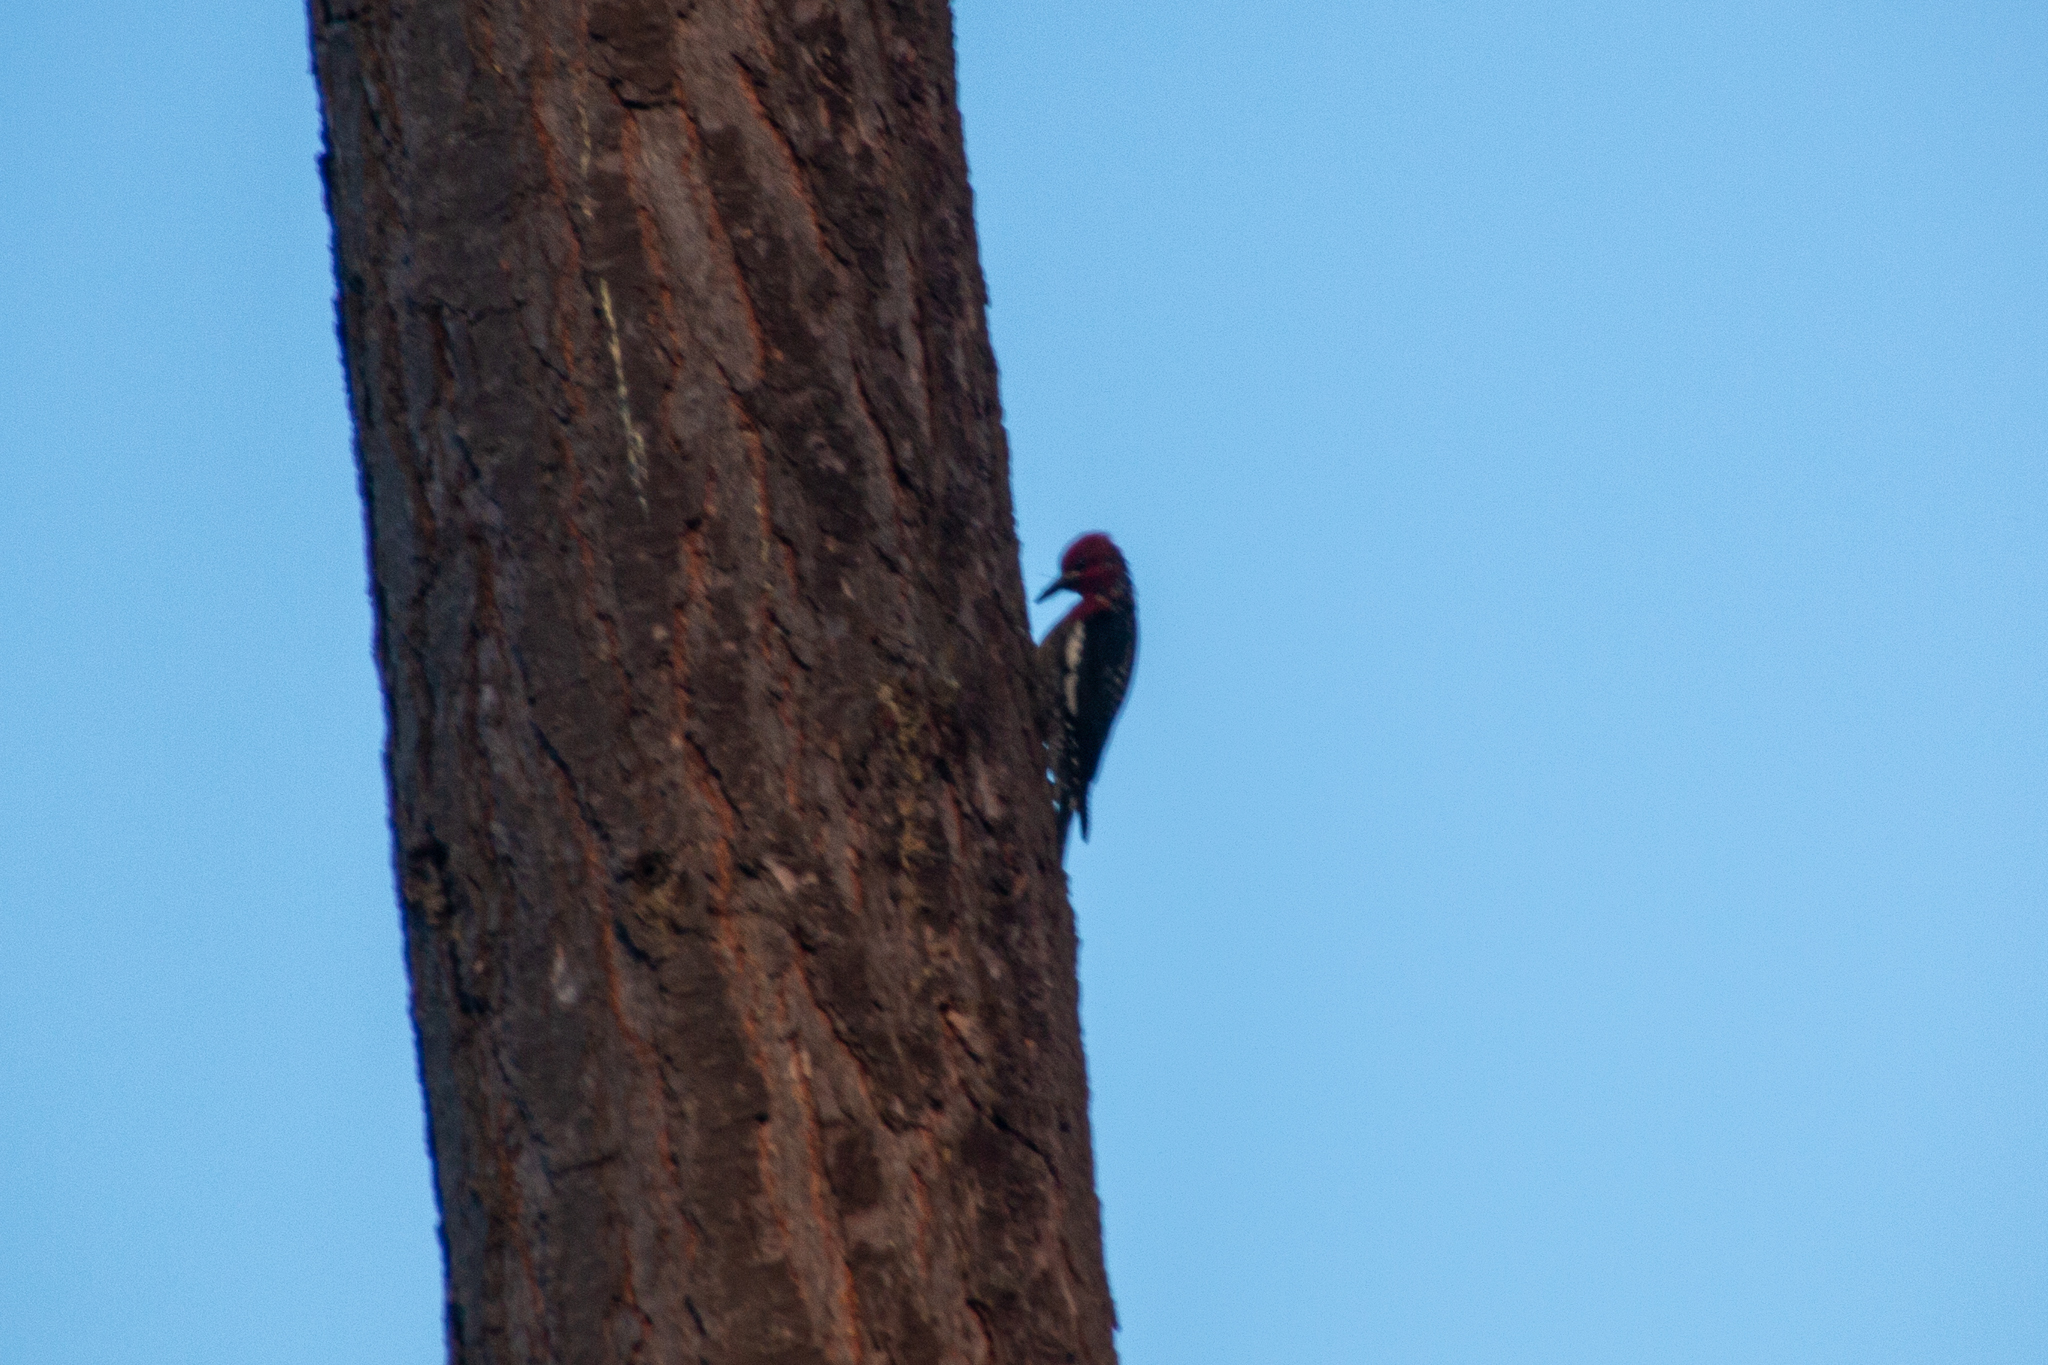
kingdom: Animalia
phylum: Chordata
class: Aves
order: Piciformes
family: Picidae
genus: Sphyrapicus
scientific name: Sphyrapicus ruber
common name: Red-breasted sapsucker
